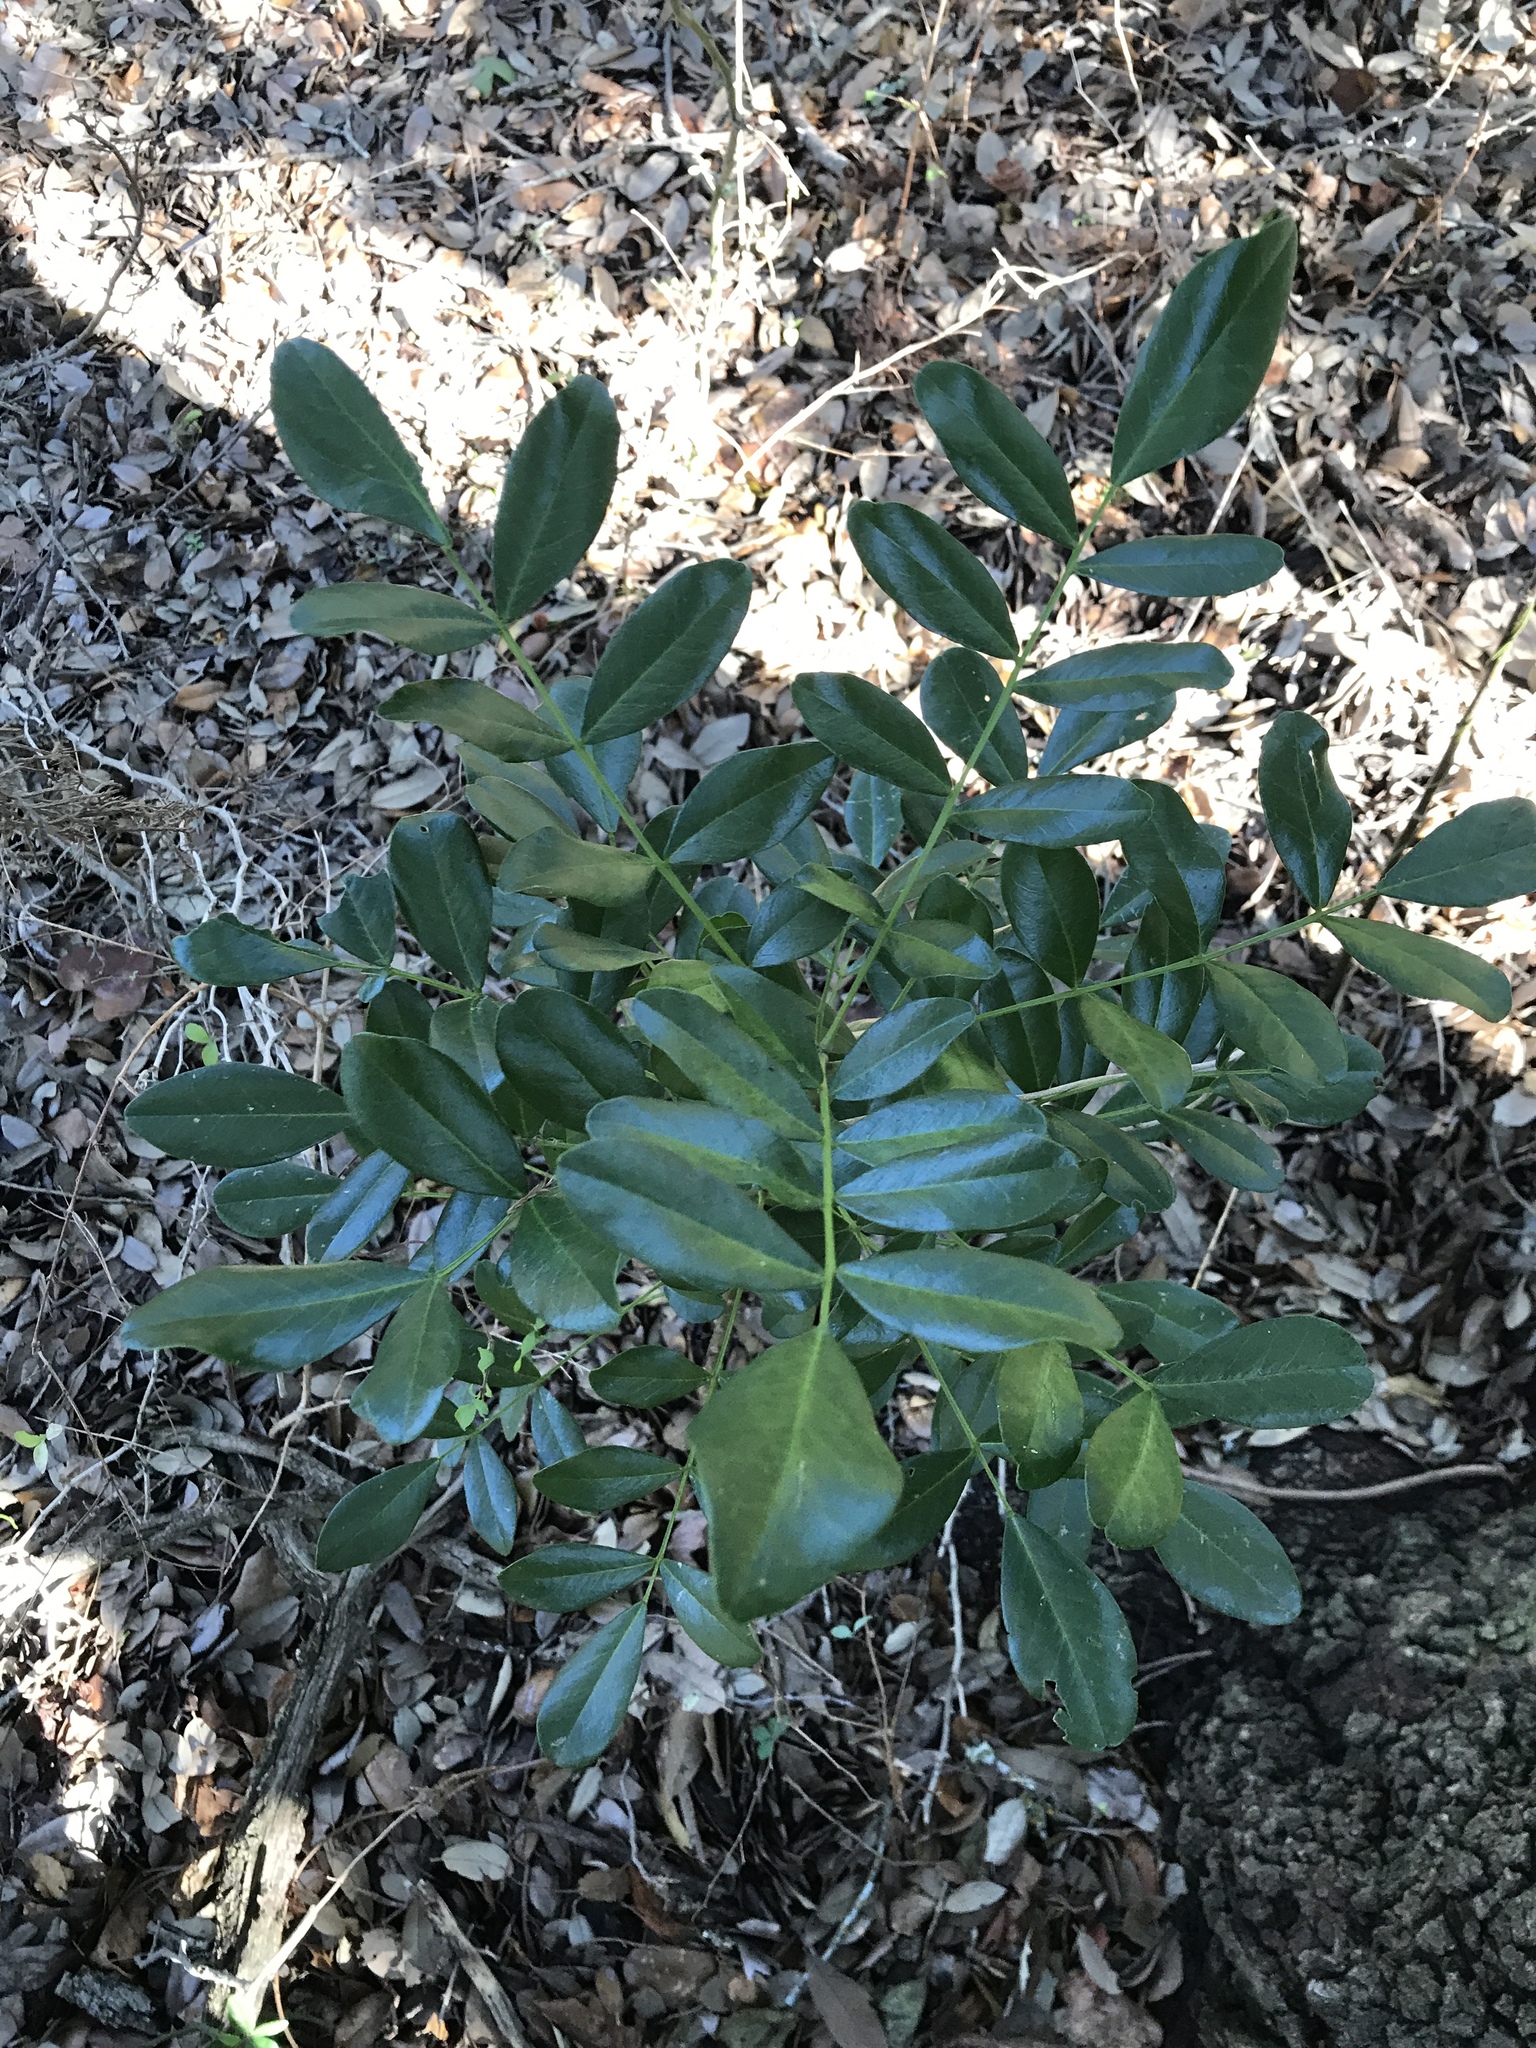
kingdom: Plantae
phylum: Tracheophyta
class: Magnoliopsida
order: Fabales
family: Fabaceae
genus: Dermatophyllum
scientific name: Dermatophyllum secundiflorum
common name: Texas-mountain-laurel
